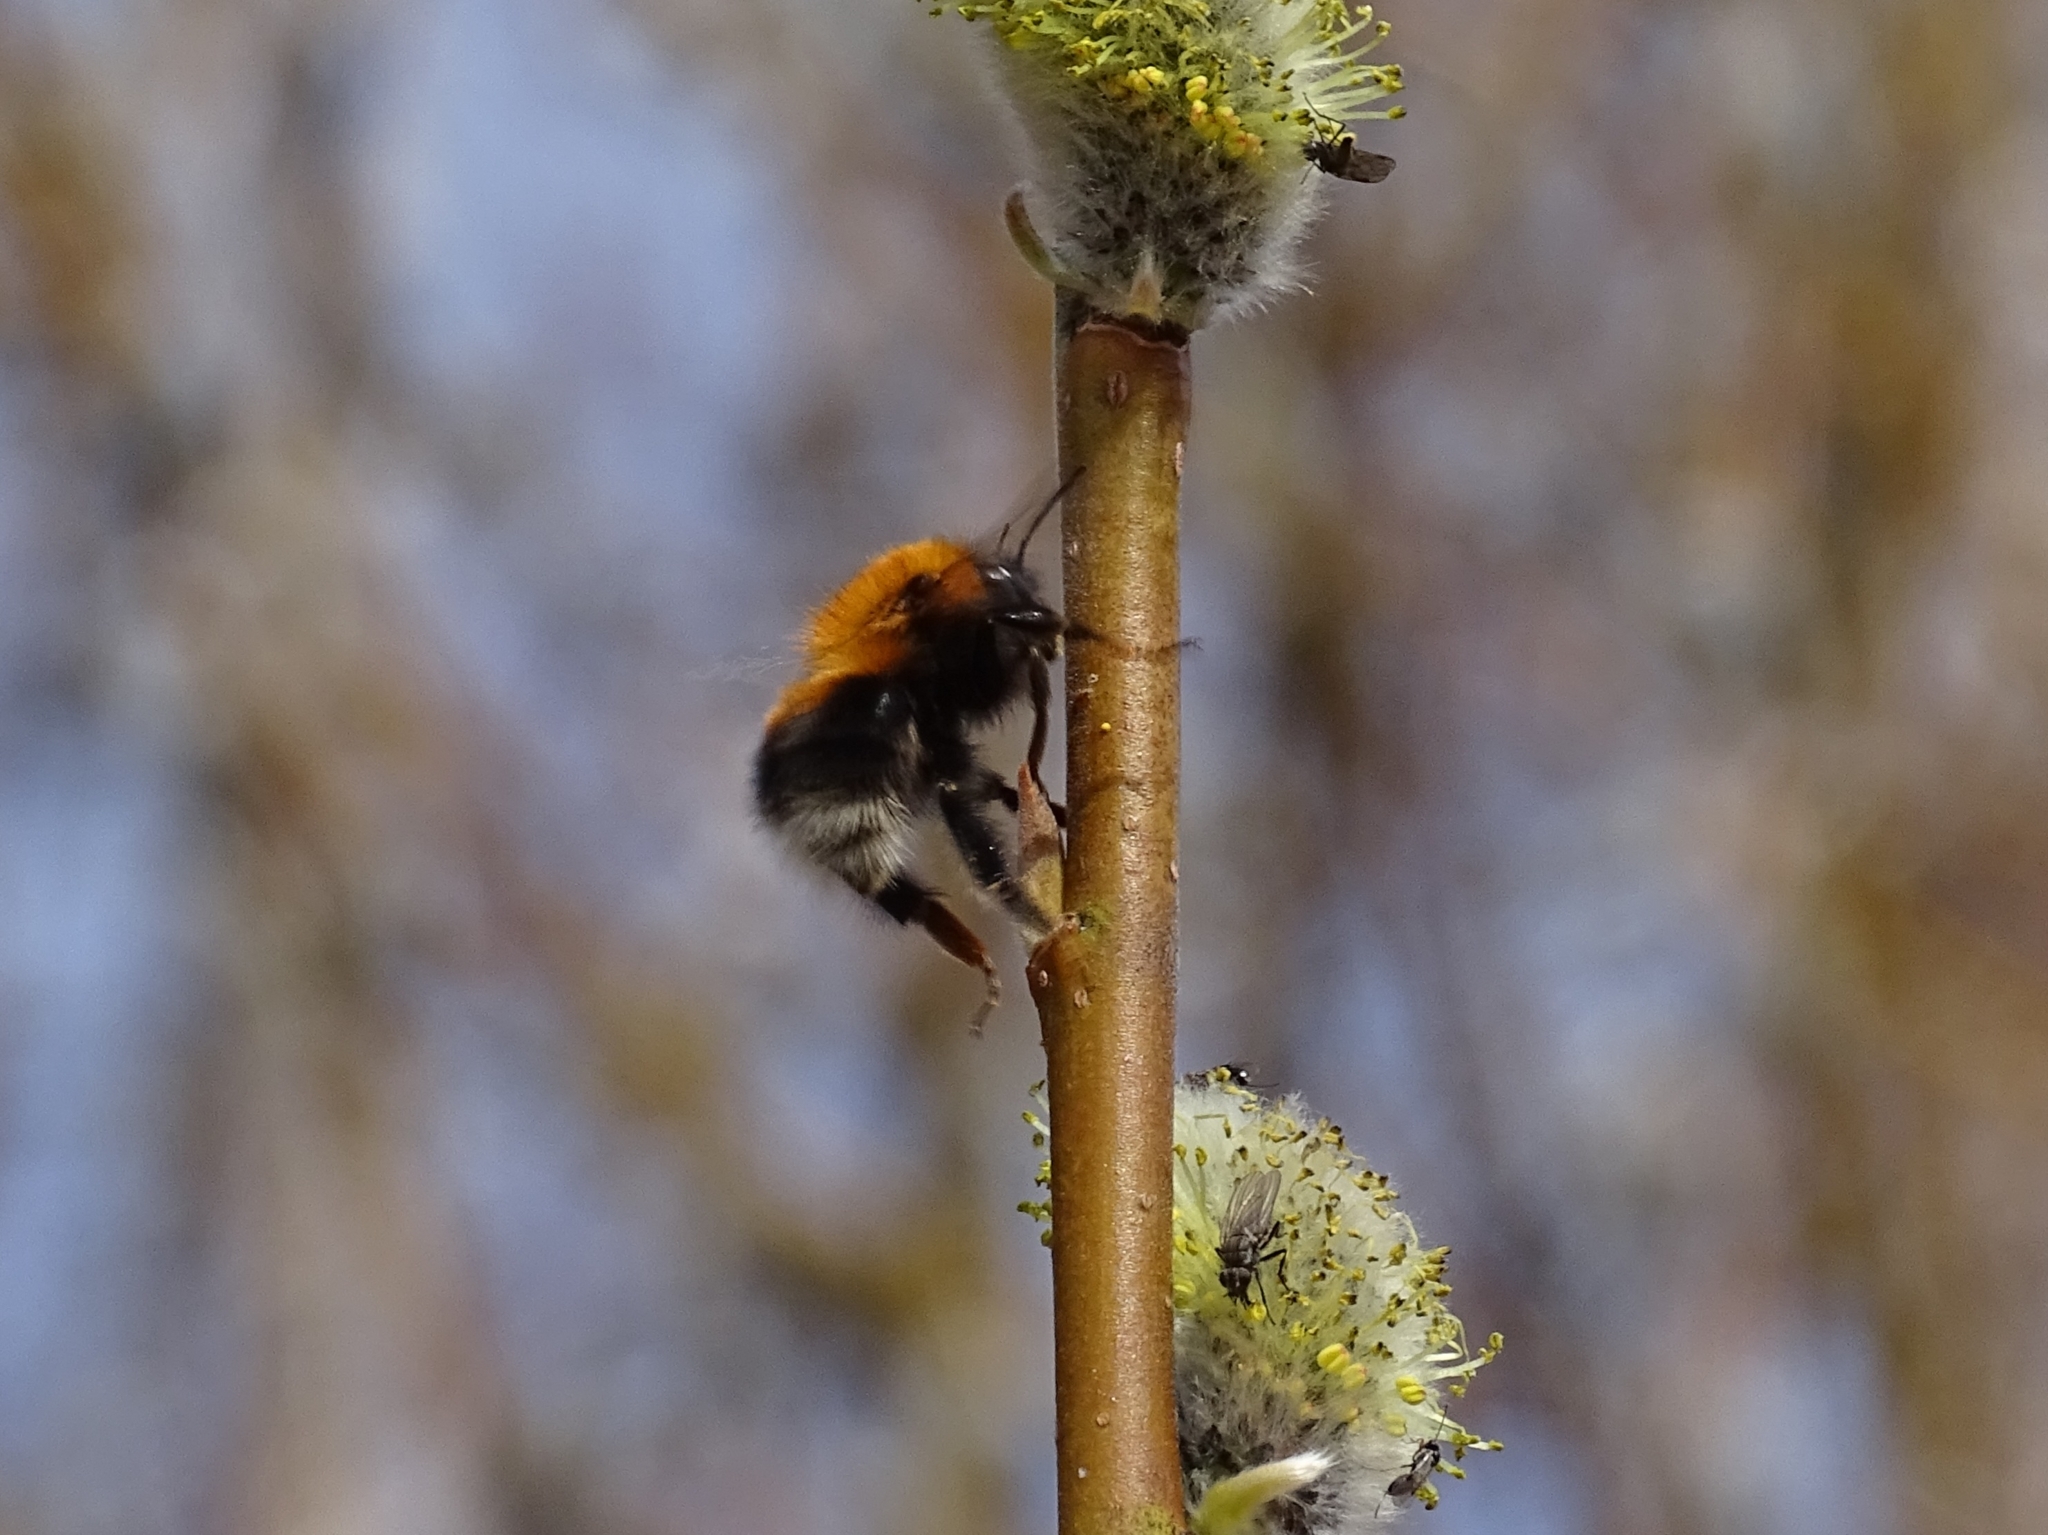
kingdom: Animalia
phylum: Arthropoda
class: Insecta
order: Hymenoptera
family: Apidae
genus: Bombus
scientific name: Bombus hypnorum
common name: New garden bumblebee
